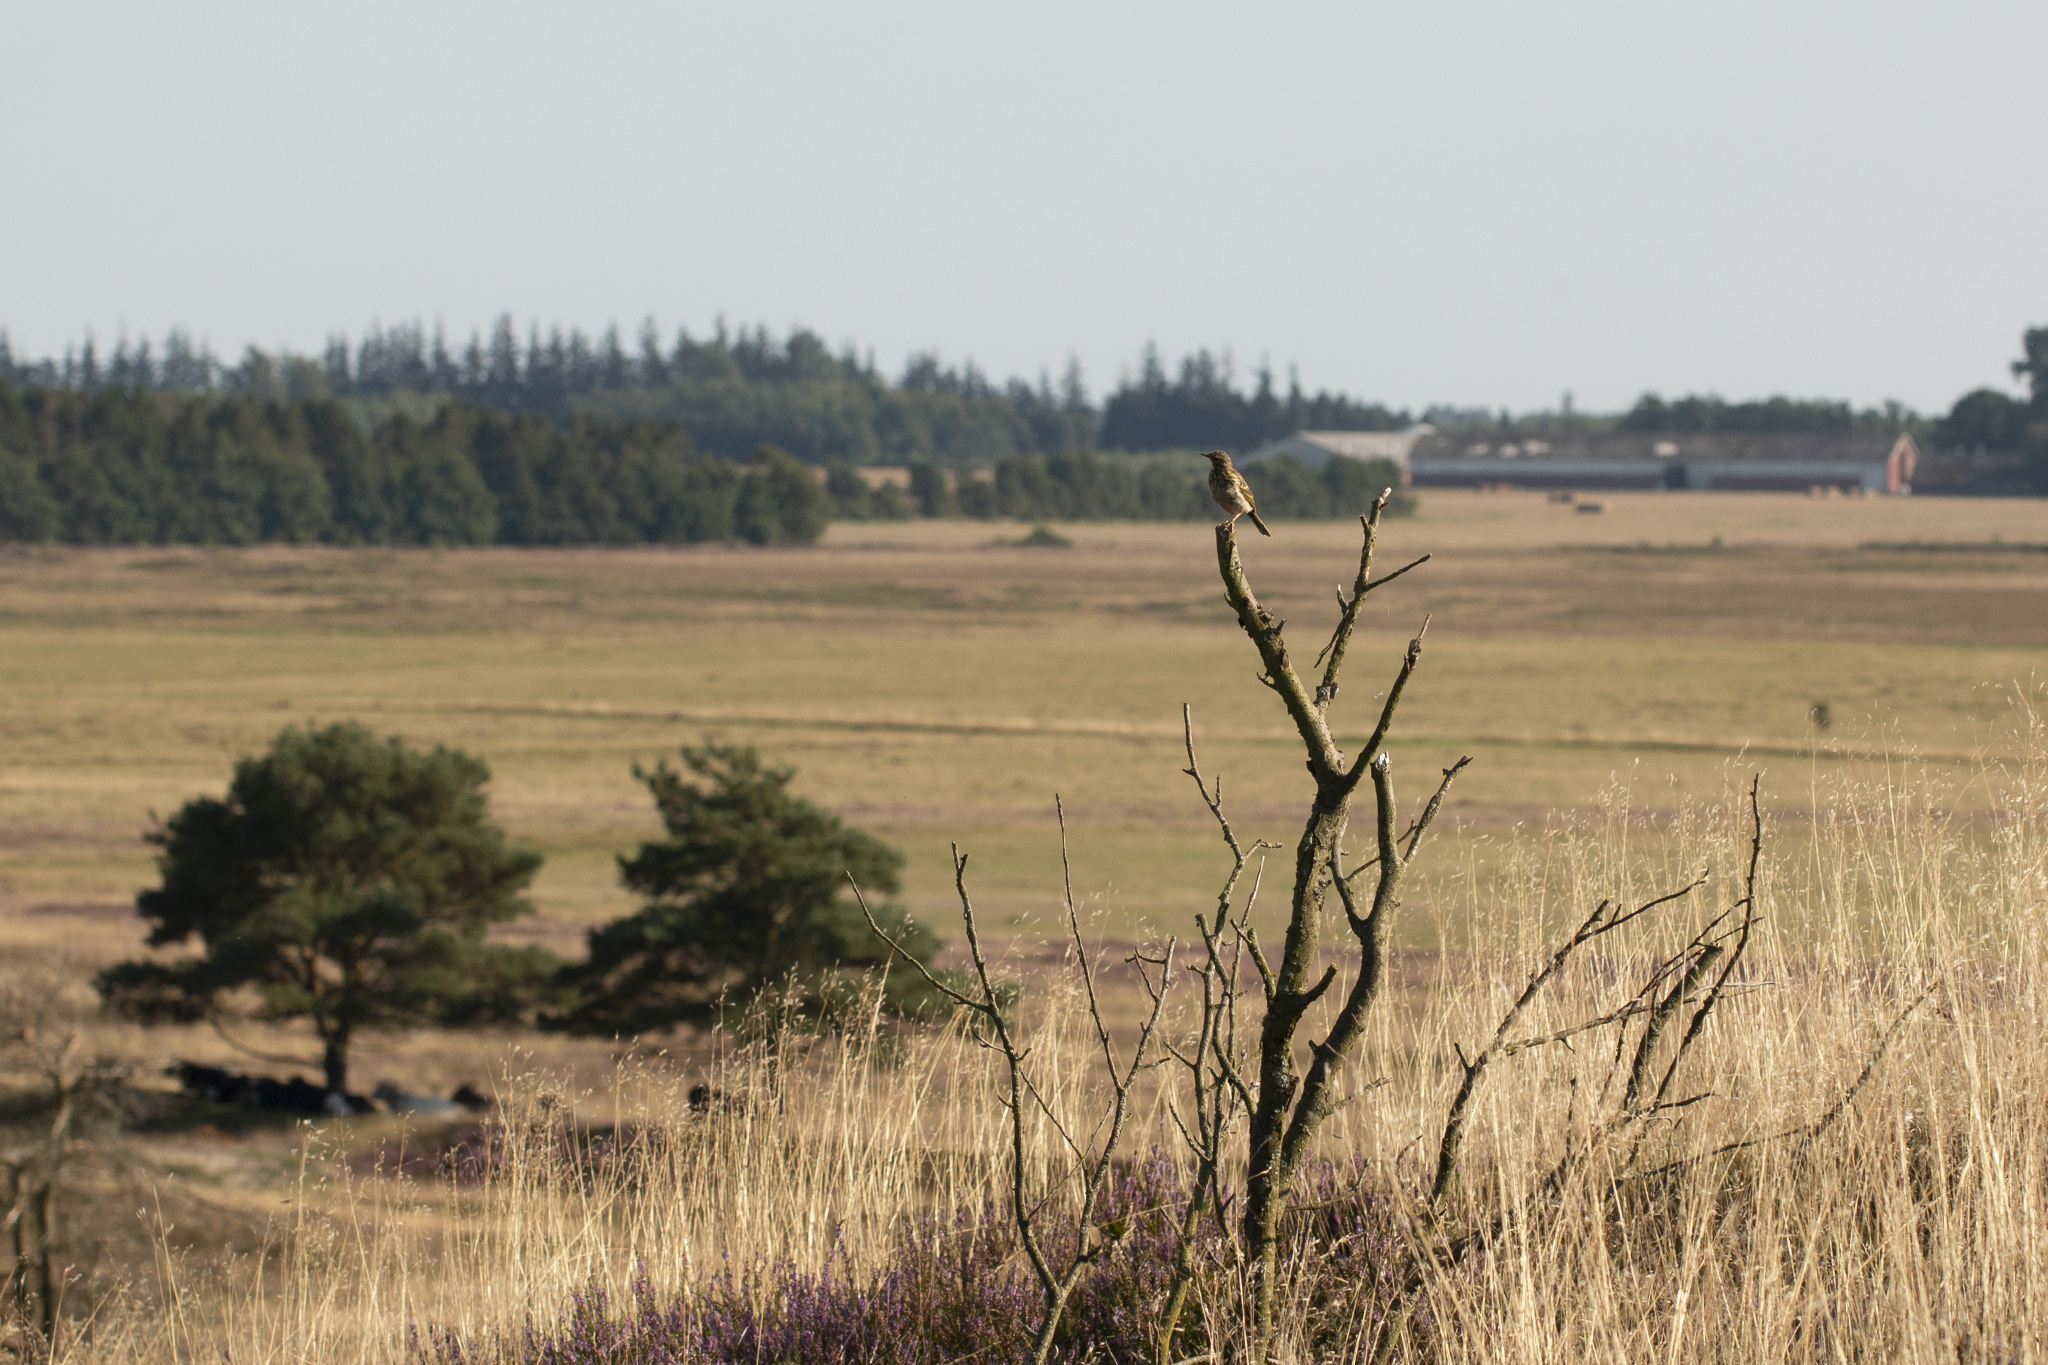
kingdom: Animalia
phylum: Chordata
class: Aves
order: Passeriformes
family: Motacillidae
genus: Anthus
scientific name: Anthus pratensis
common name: Meadow pipit
